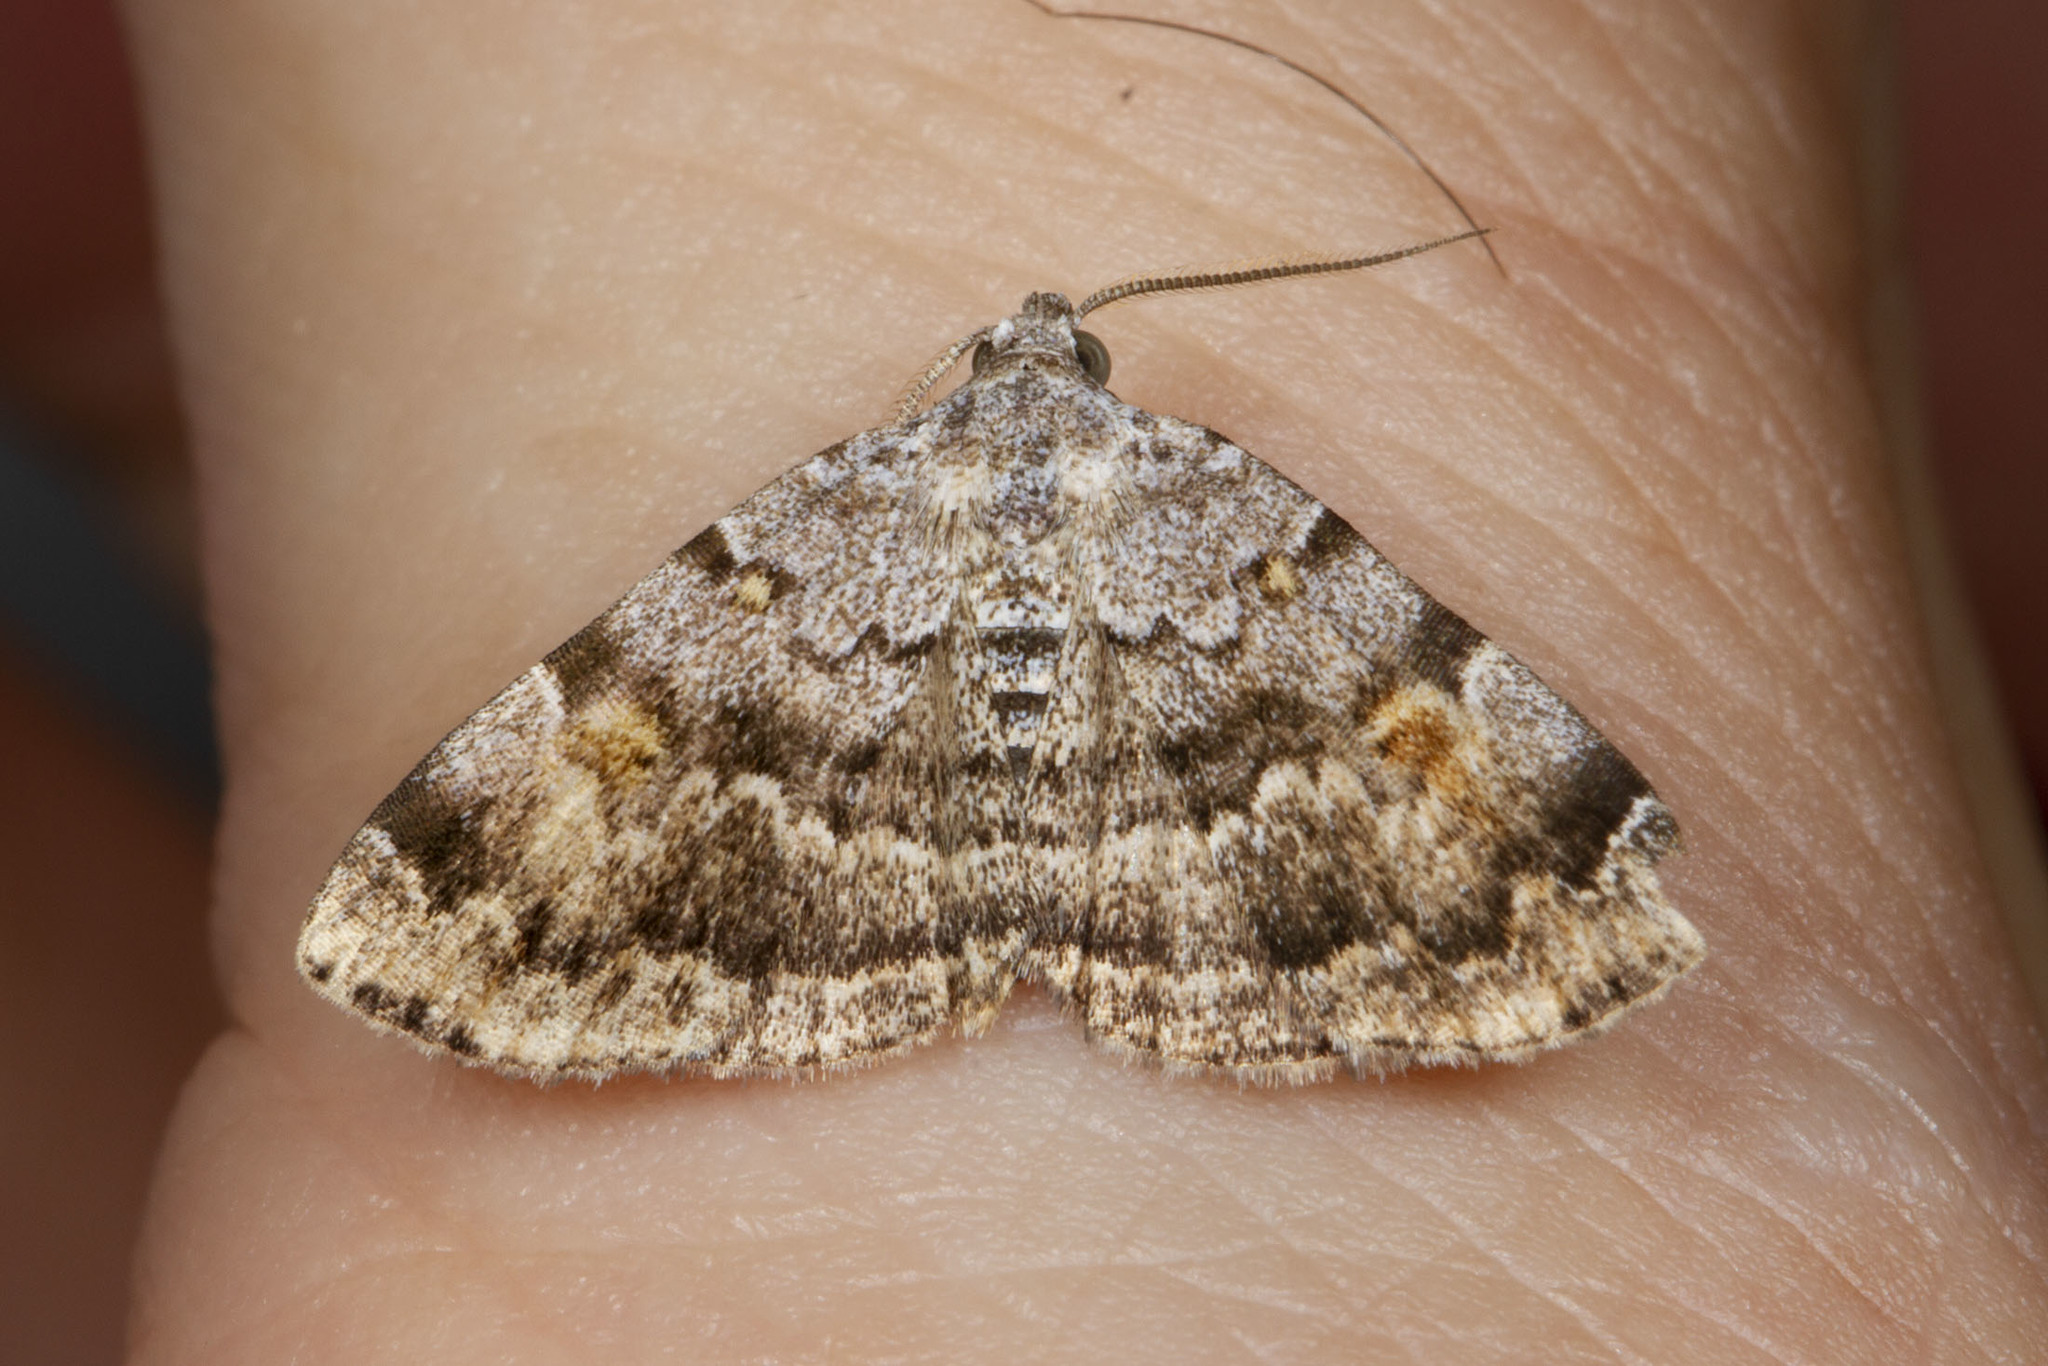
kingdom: Animalia
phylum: Arthropoda
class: Insecta
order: Lepidoptera
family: Erebidae
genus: Idia
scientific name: Idia americalis
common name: American idia moth
